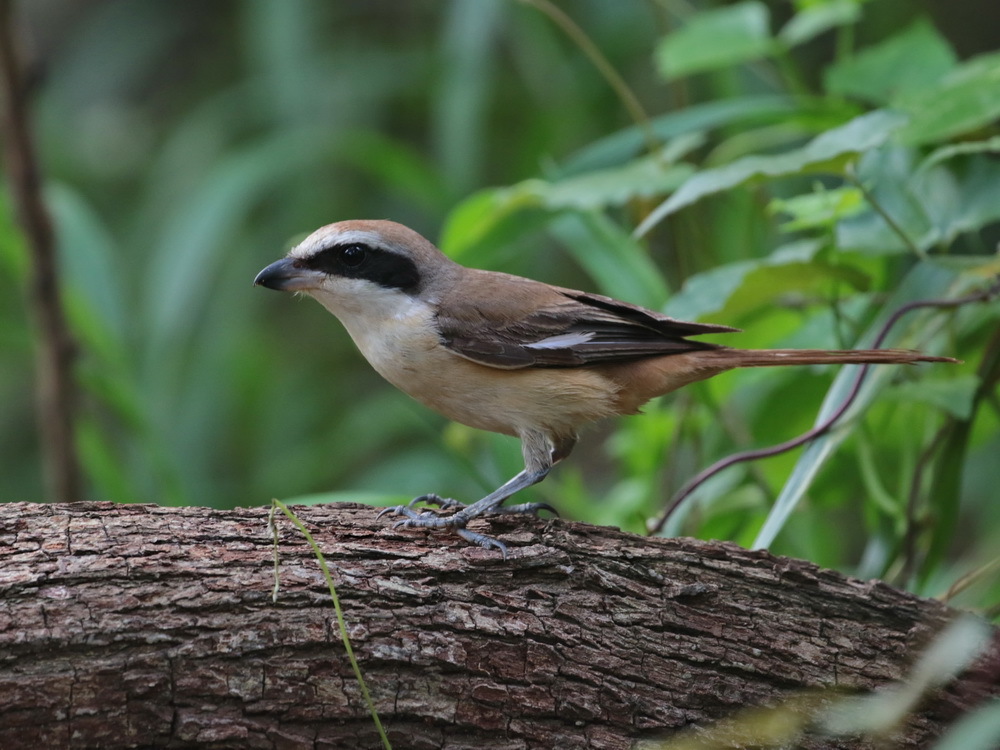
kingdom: Animalia
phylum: Chordata
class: Aves
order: Passeriformes
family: Laniidae
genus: Lanius
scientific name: Lanius cristatus
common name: Brown shrike
